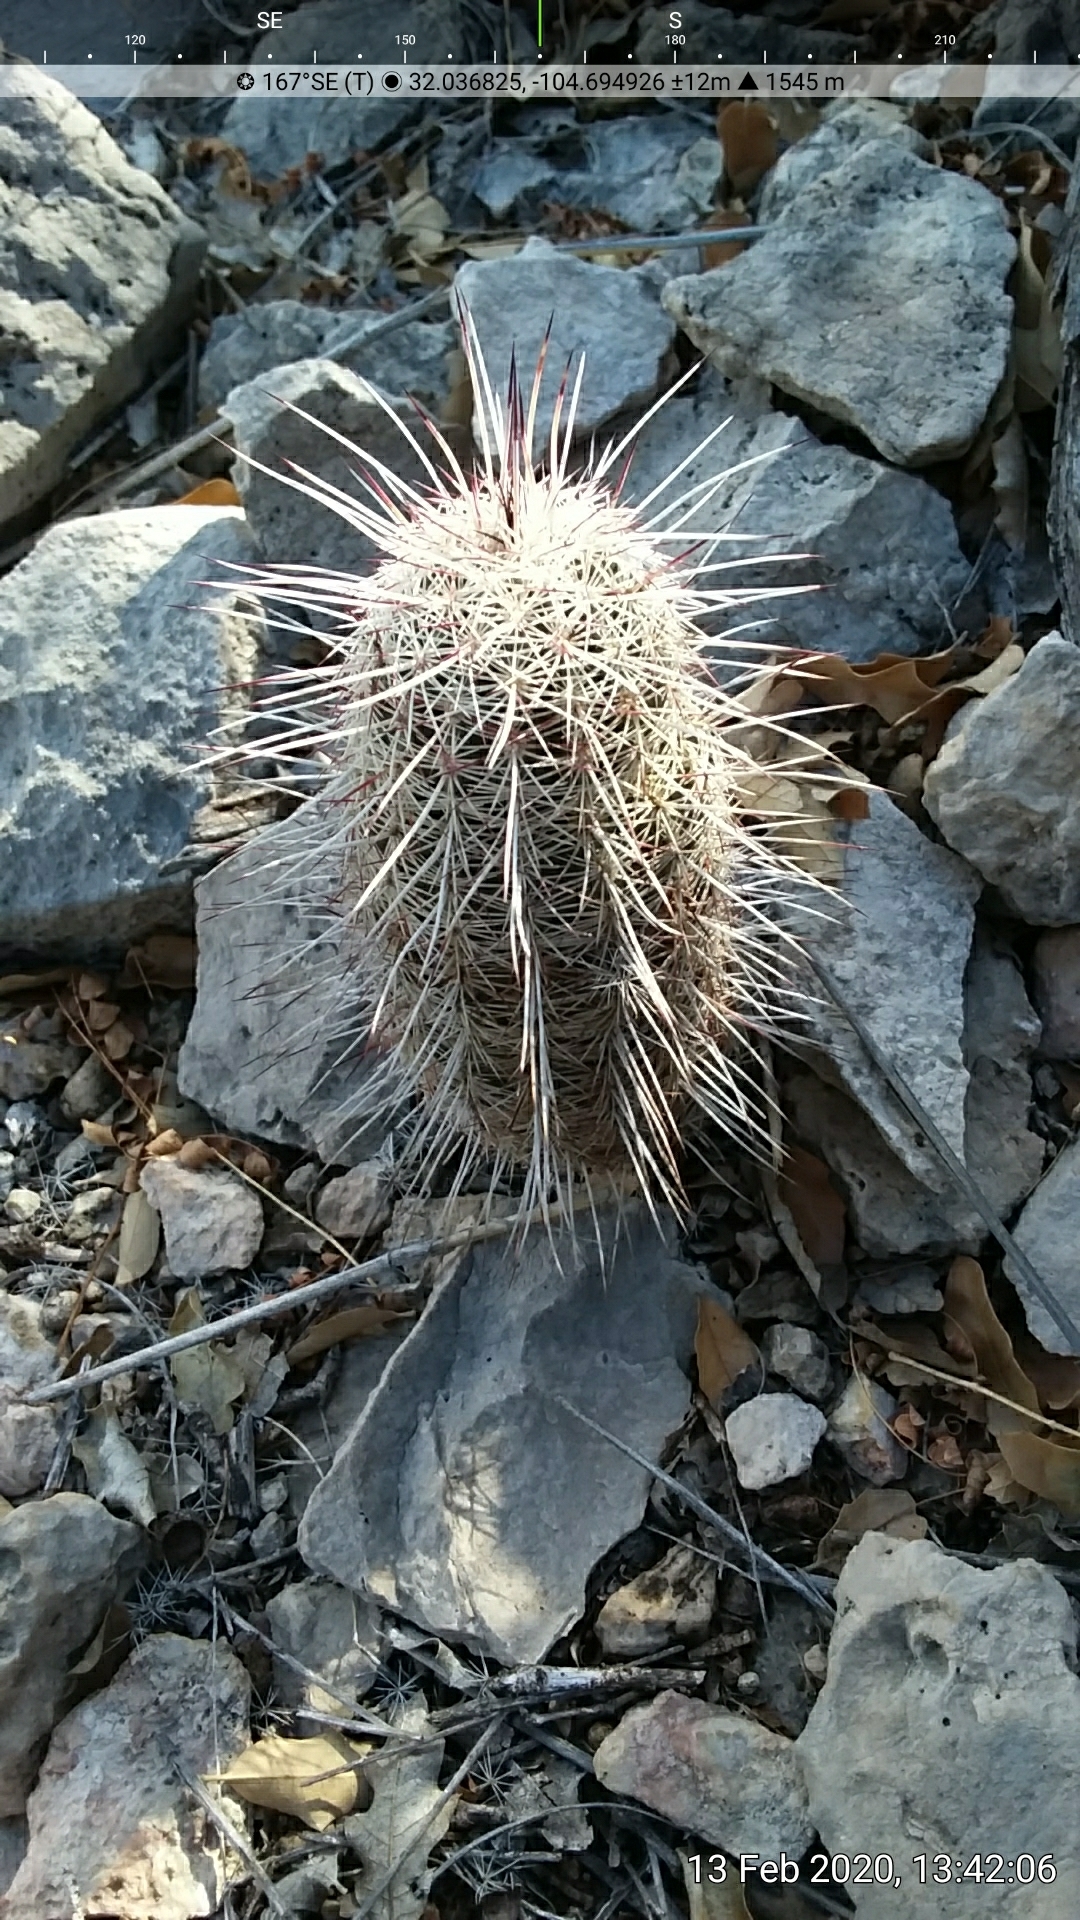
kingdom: Plantae
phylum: Tracheophyta
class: Magnoliopsida
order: Caryophyllales
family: Cactaceae
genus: Echinocereus
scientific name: Echinocereus viridiflorus
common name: Nylon hedgehog cactus
